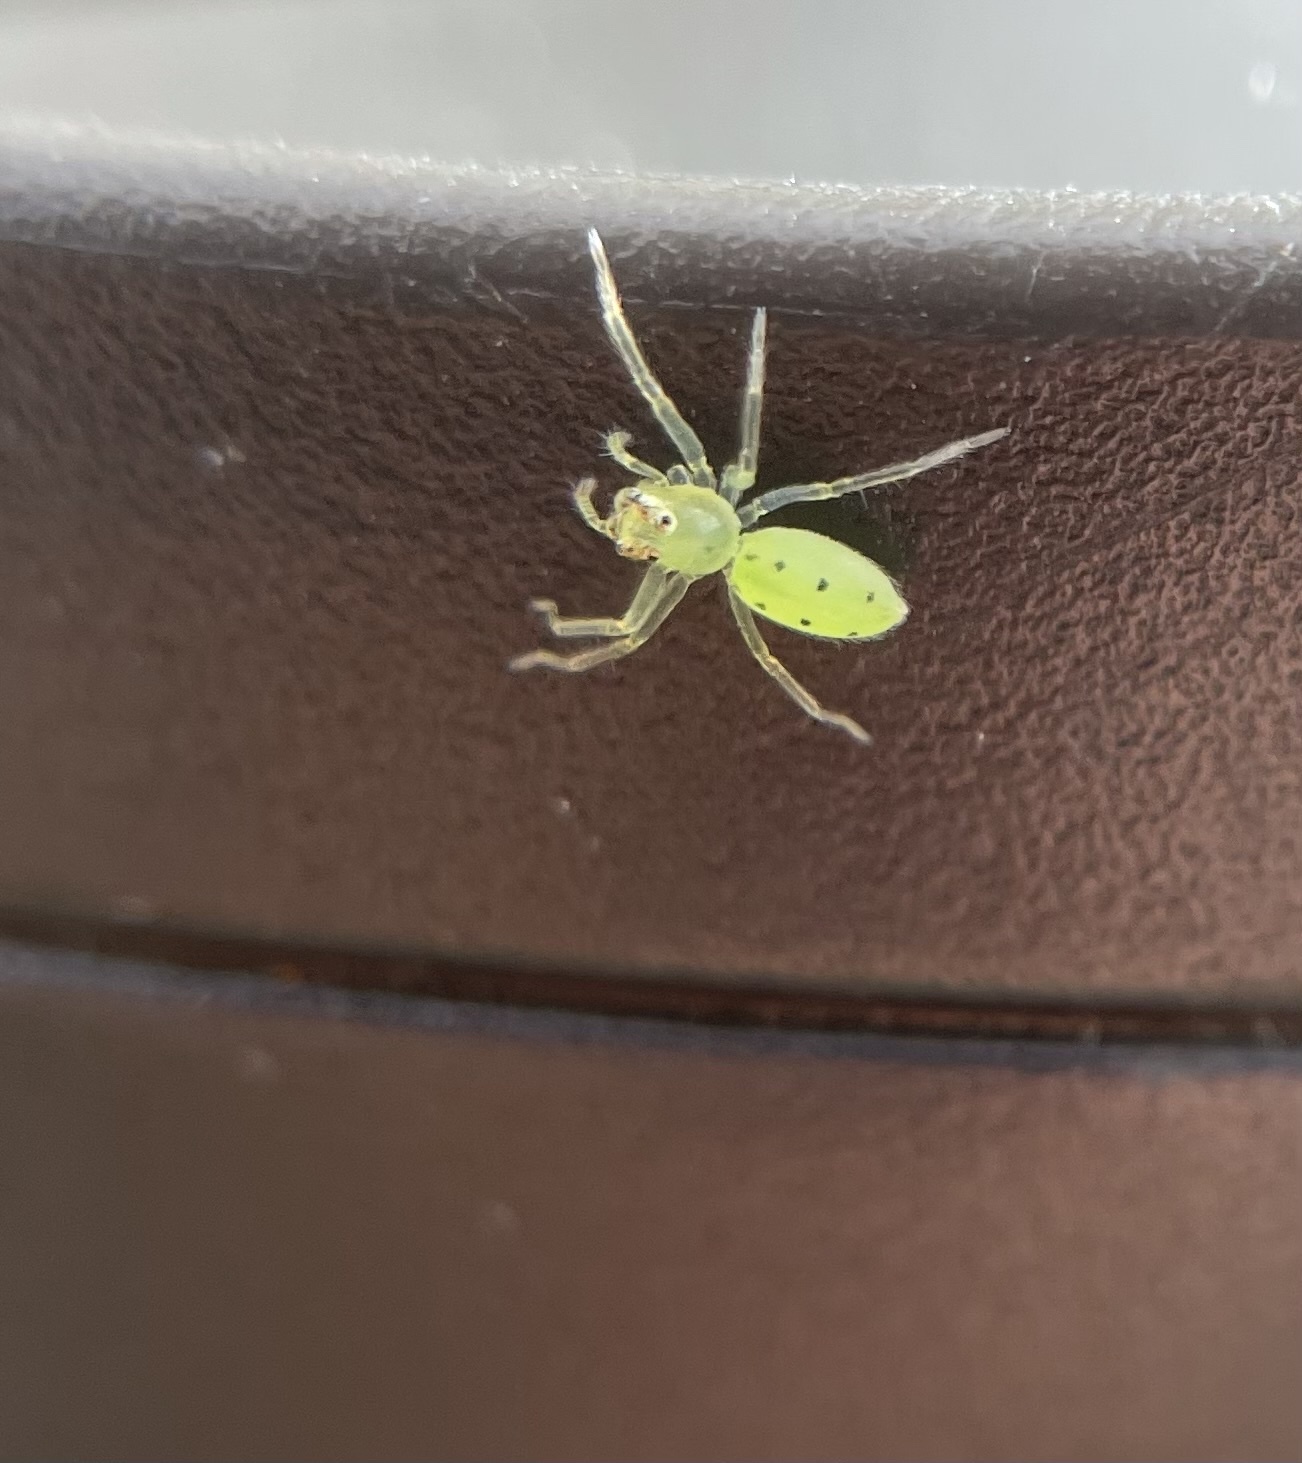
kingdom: Animalia
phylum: Arthropoda
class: Arachnida
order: Araneae
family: Salticidae
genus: Lyssomanes
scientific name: Lyssomanes viridis
